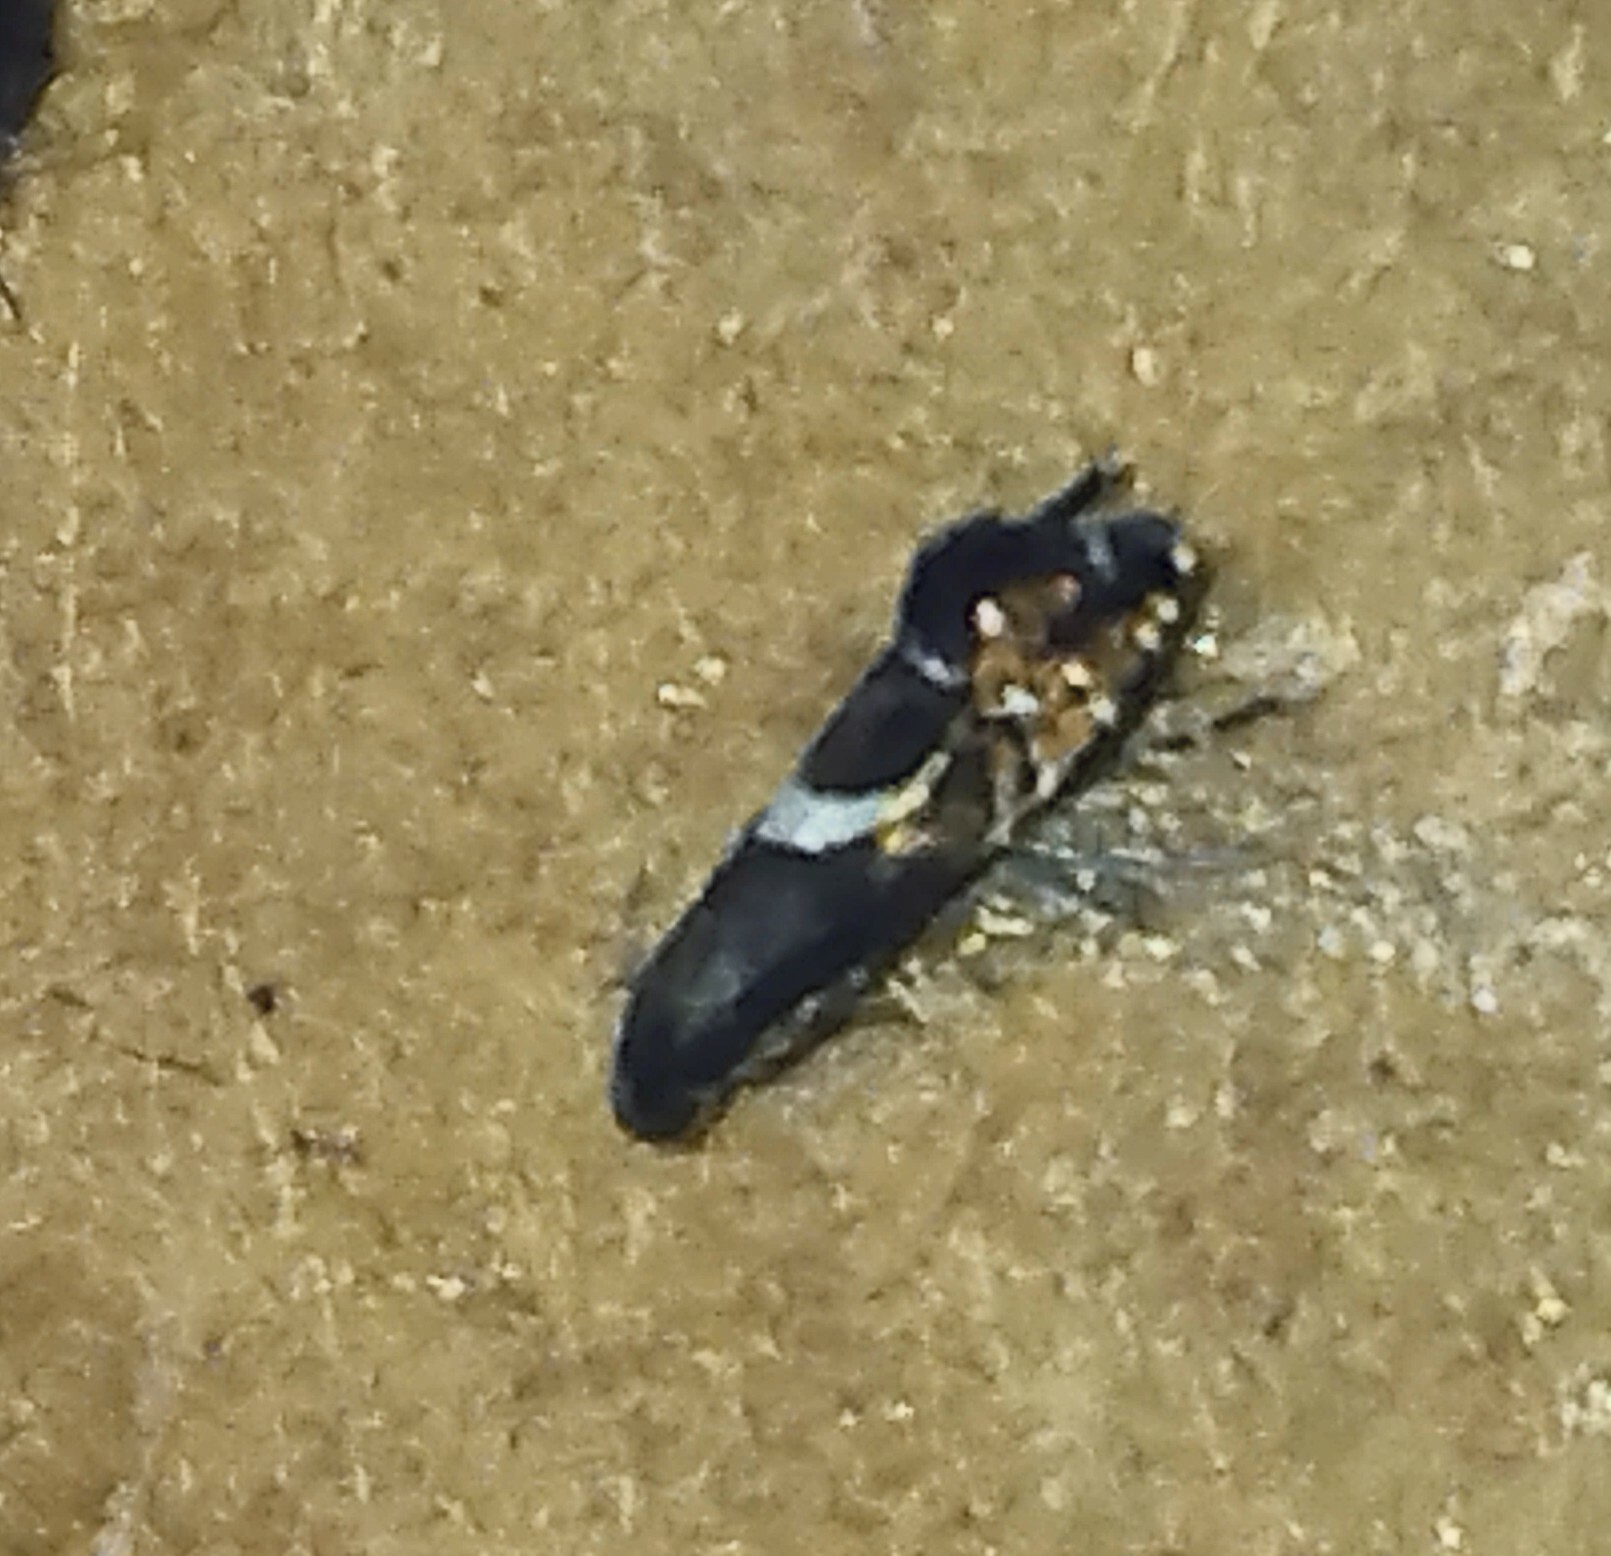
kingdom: Animalia
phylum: Arthropoda
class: Insecta
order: Lepidoptera
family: Glyphipterigidae
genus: Glyphipterix
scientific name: Glyphipterix Diploschizia impigritella
